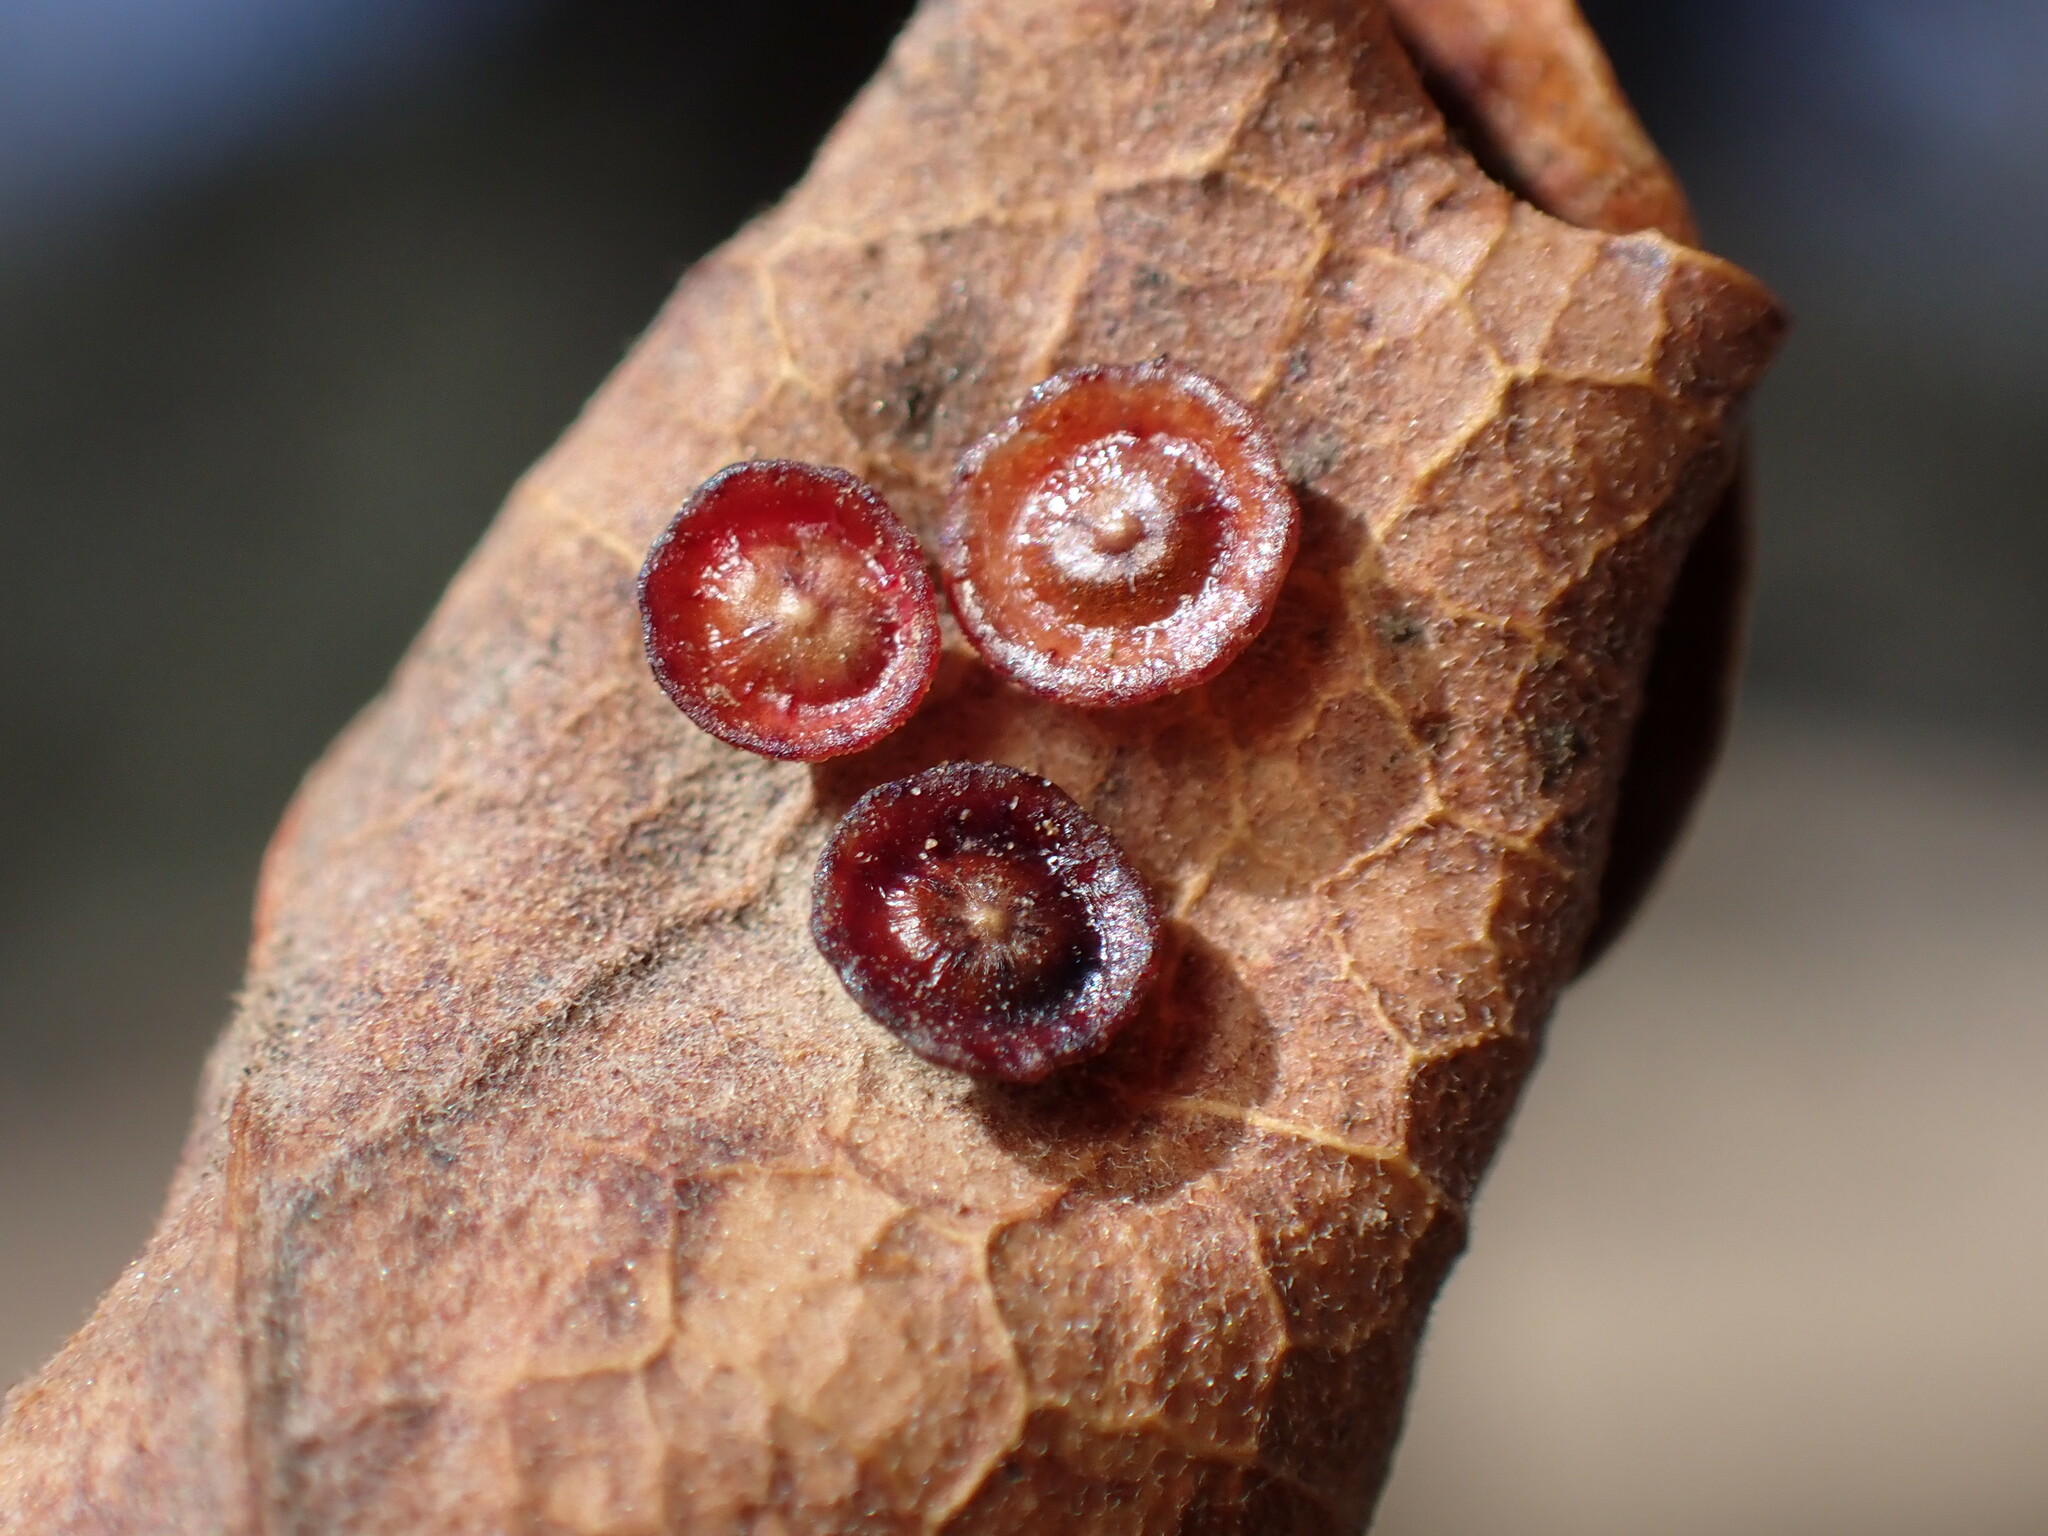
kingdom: Animalia
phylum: Arthropoda
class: Insecta
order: Hymenoptera
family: Cynipidae
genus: Andricus
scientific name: Andricus
